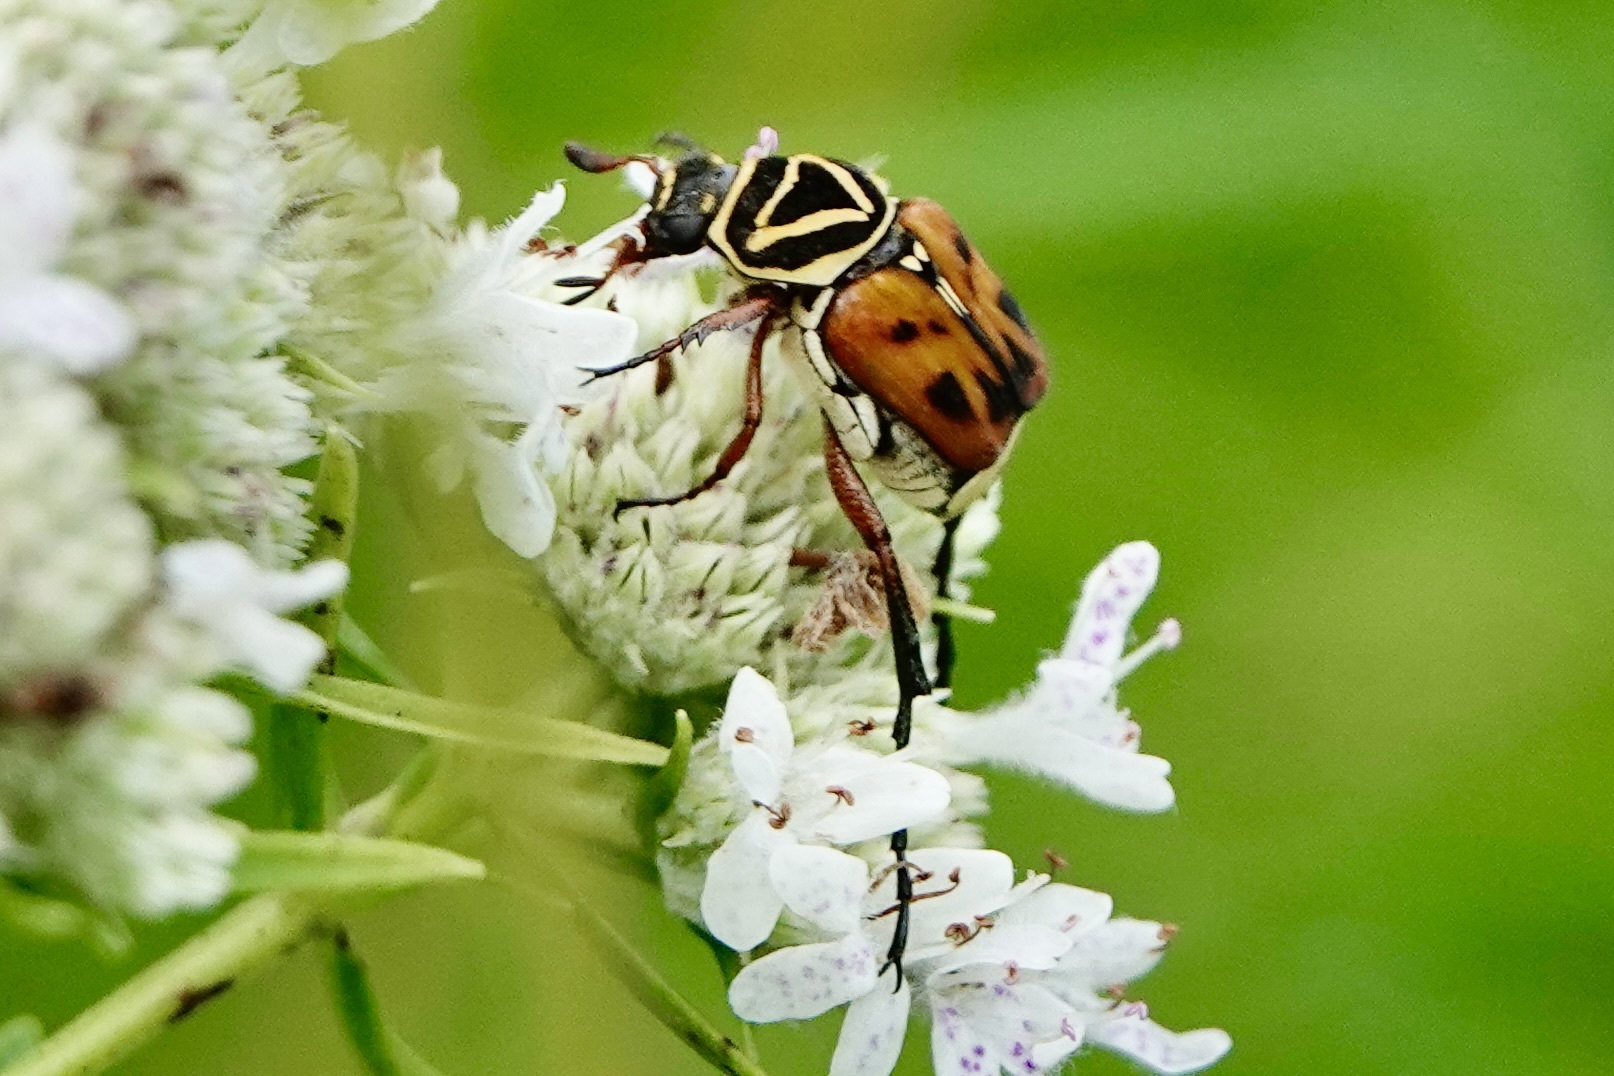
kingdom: Animalia
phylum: Arthropoda
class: Insecta
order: Coleoptera
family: Scarabaeidae
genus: Trigonopeltastes
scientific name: Trigonopeltastes delta
